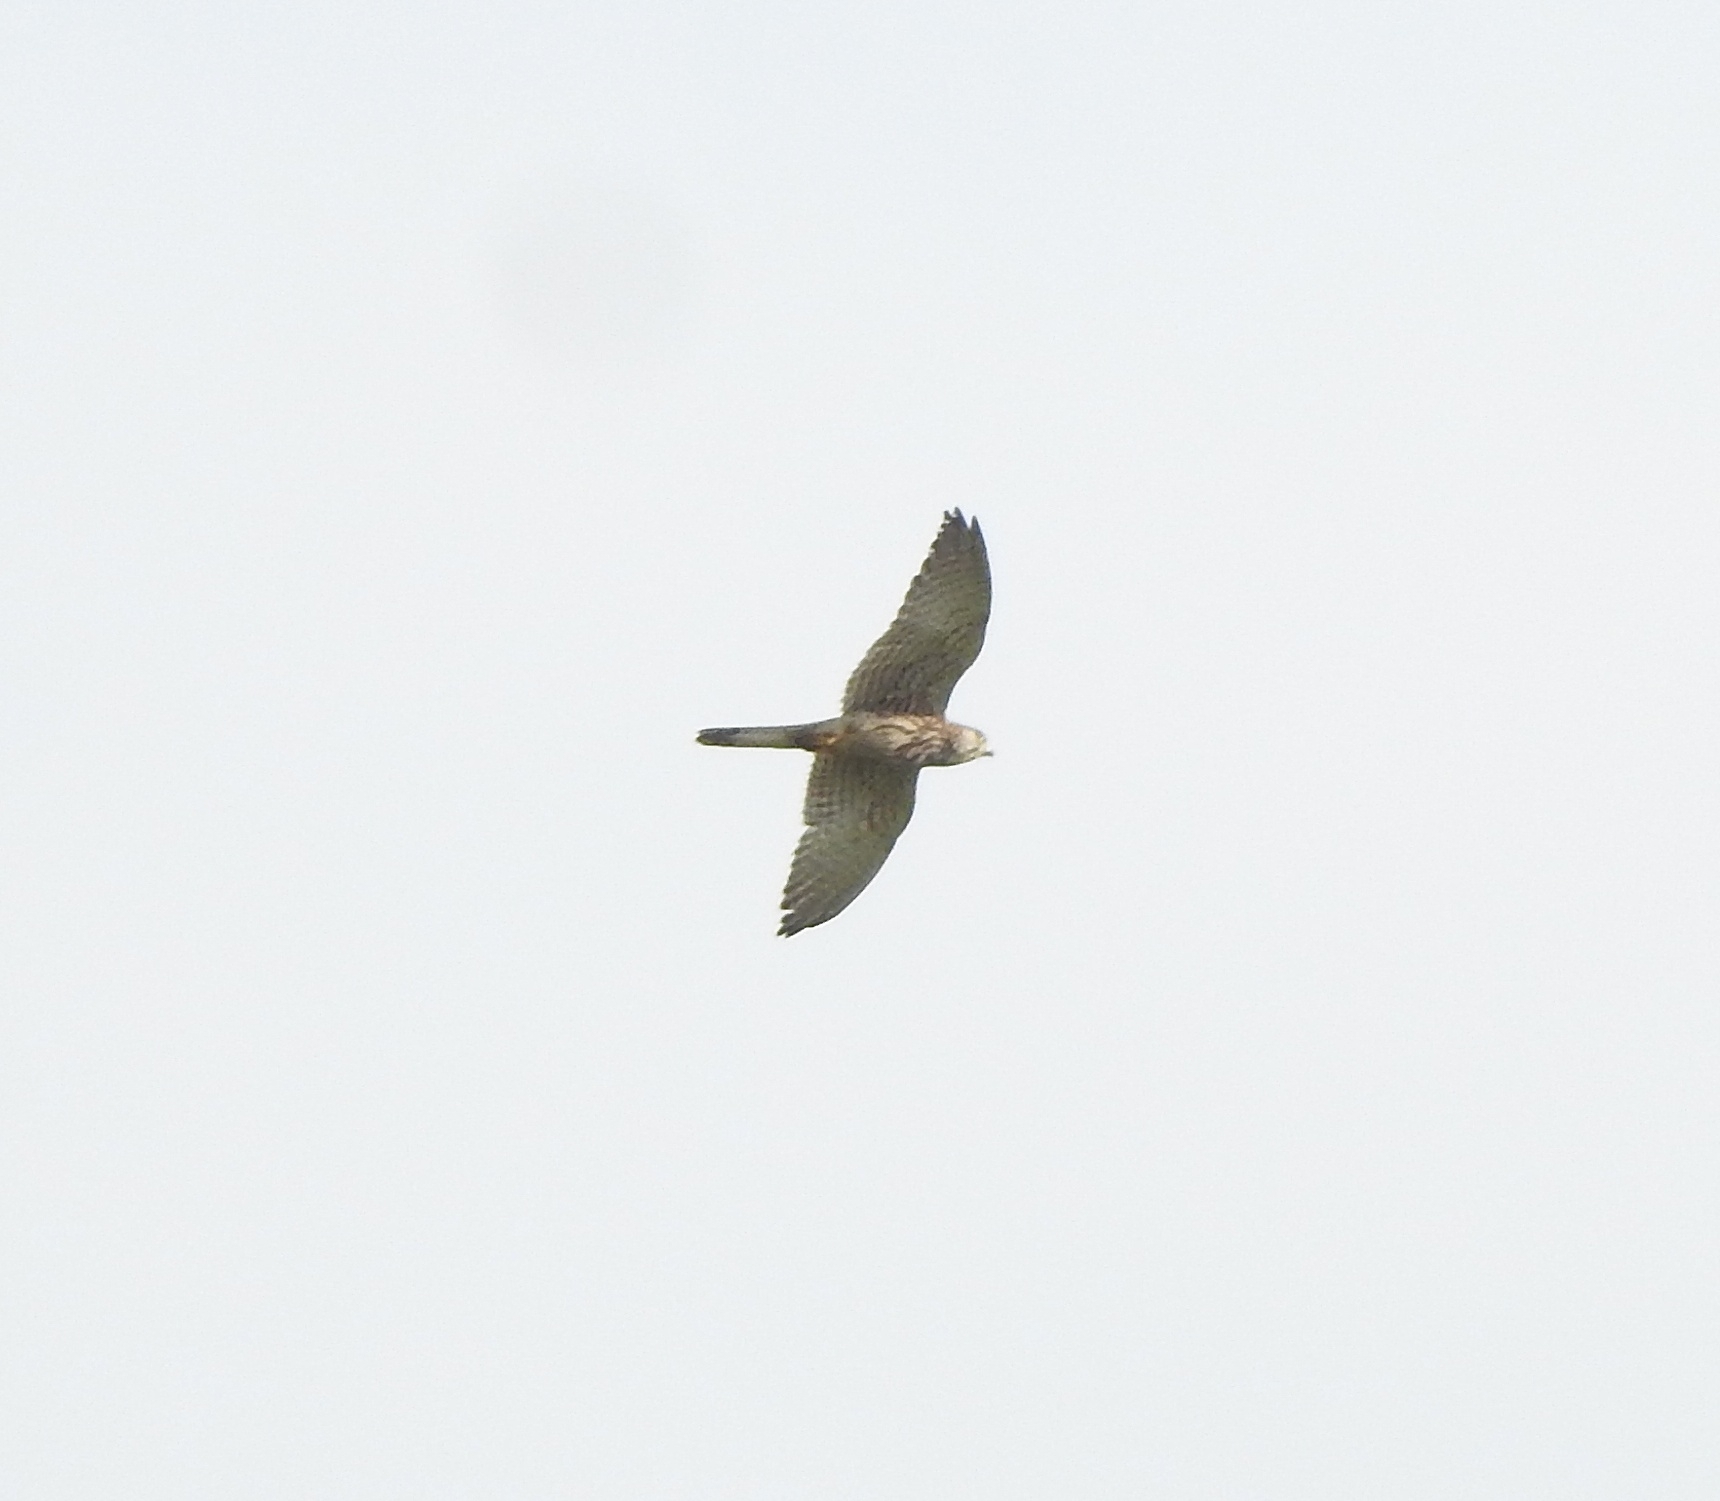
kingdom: Animalia
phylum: Chordata
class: Aves
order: Falconiformes
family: Falconidae
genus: Falco
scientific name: Falco tinnunculus
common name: Common kestrel
